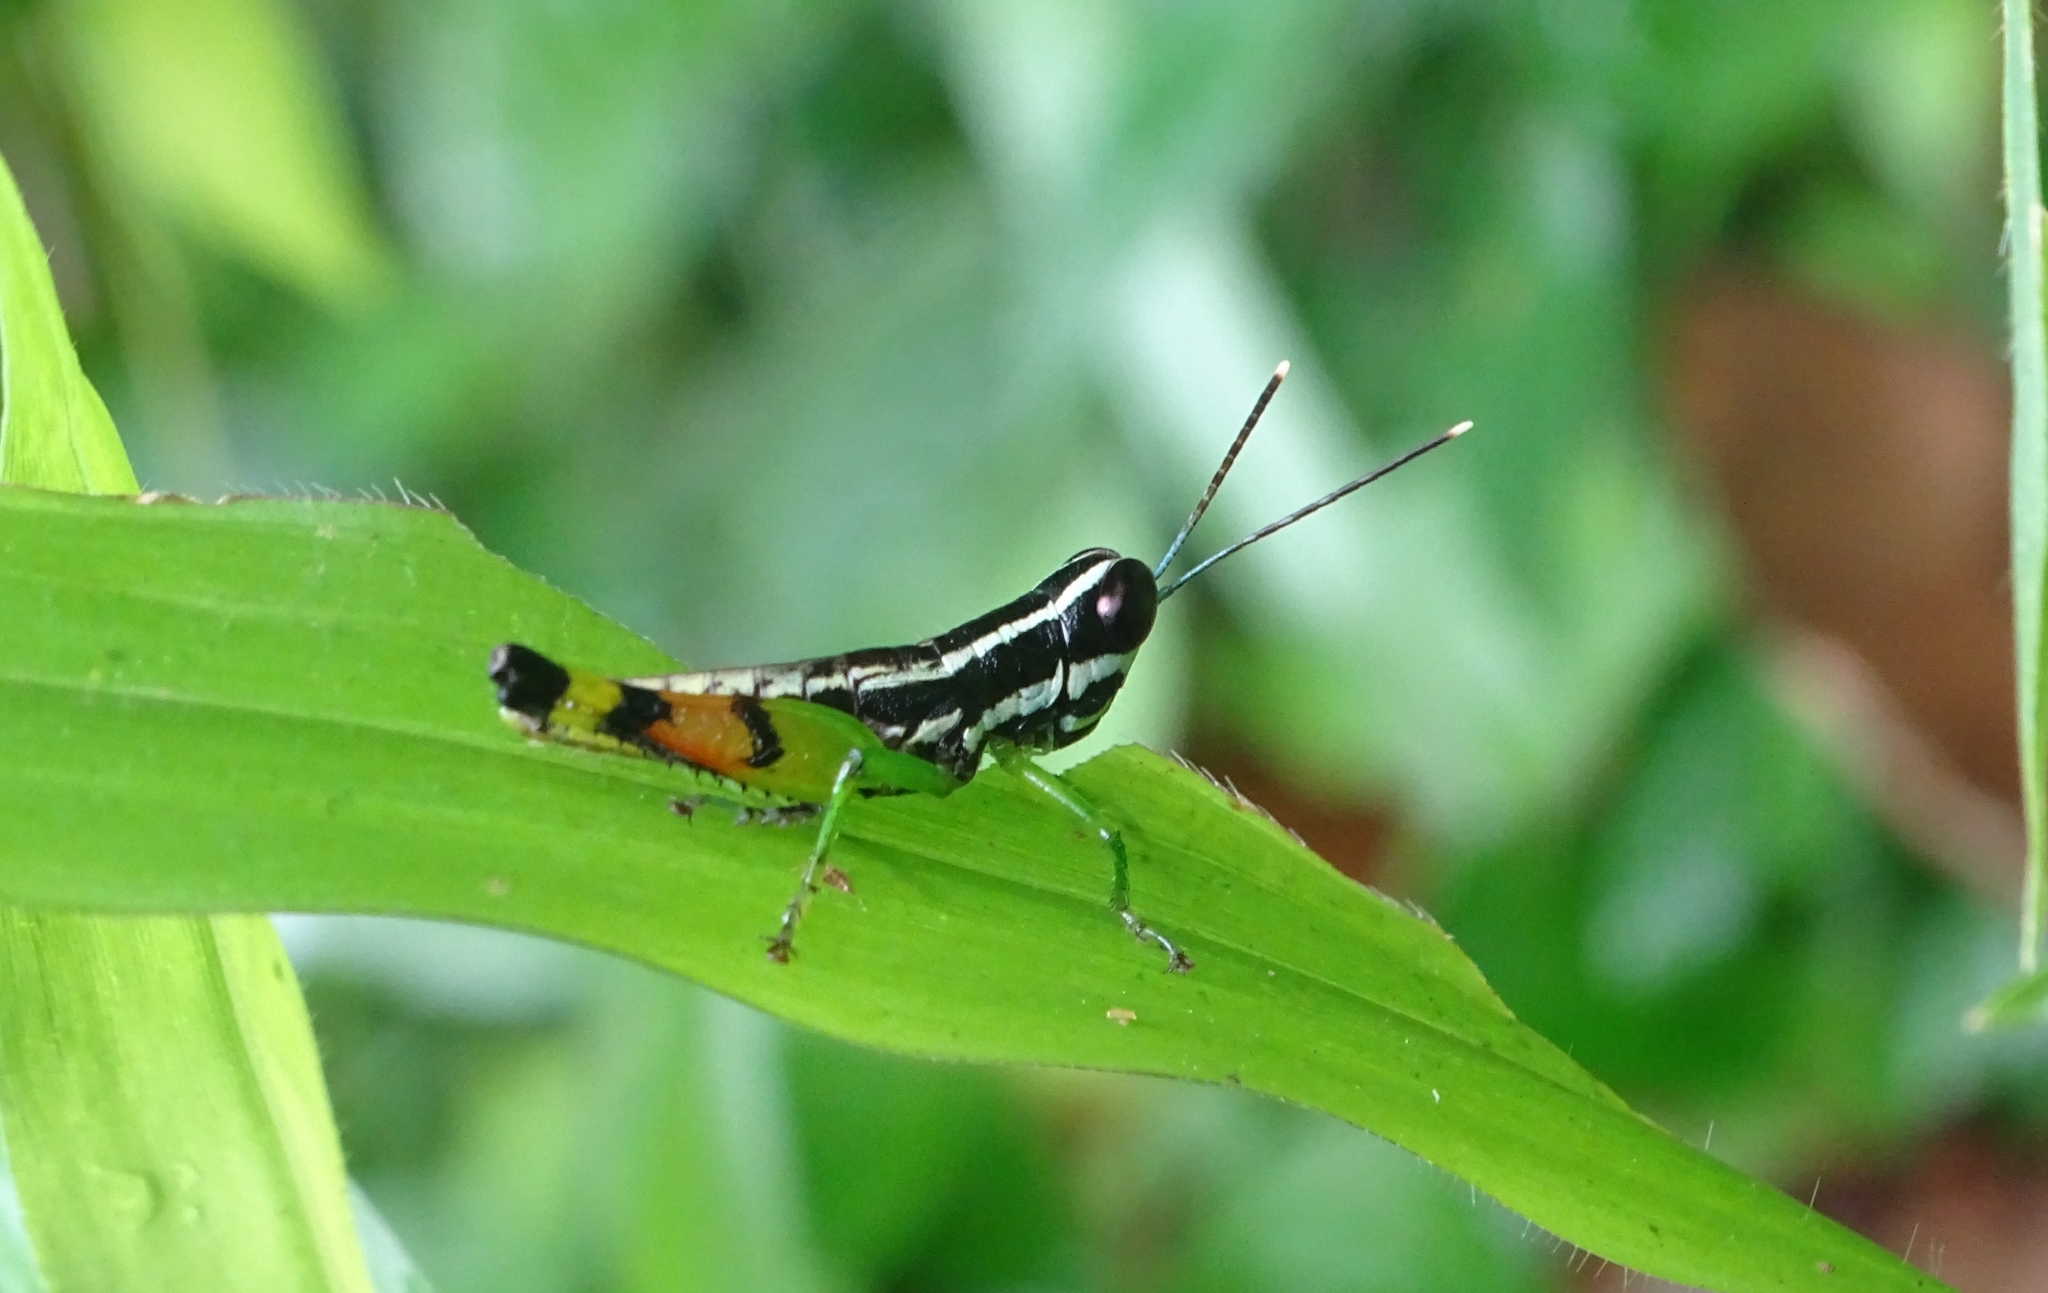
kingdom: Animalia
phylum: Arthropoda
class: Insecta
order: Orthoptera
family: Acrididae
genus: Chitaura
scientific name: Chitaura indica
